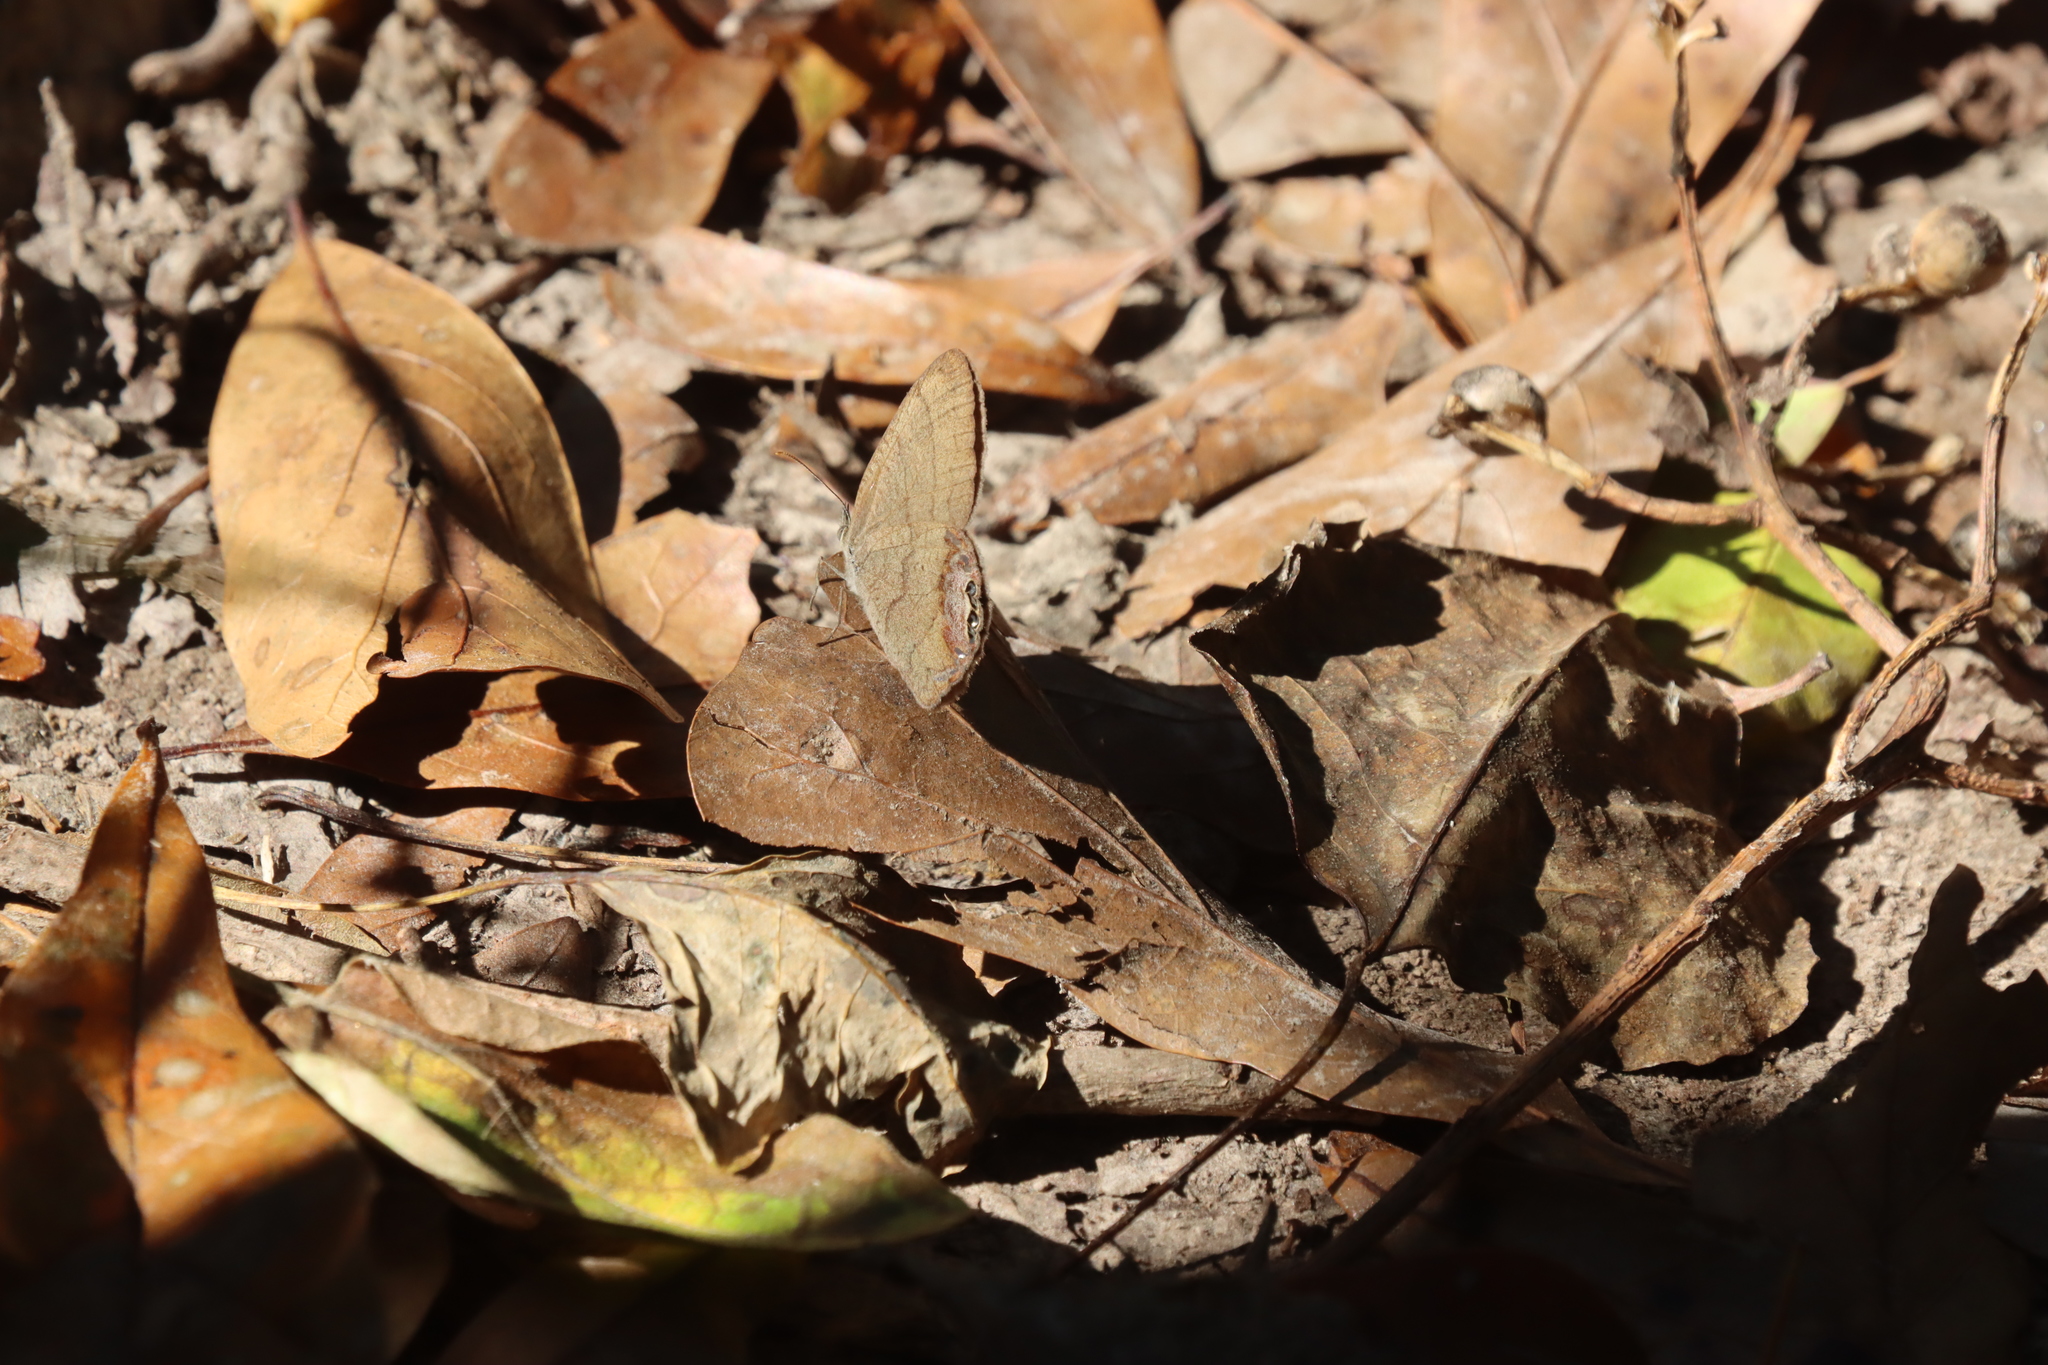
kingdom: Animalia
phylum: Arthropoda
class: Insecta
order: Lepidoptera
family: Nymphalidae
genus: Euptychia
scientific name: Euptychia cornelius
